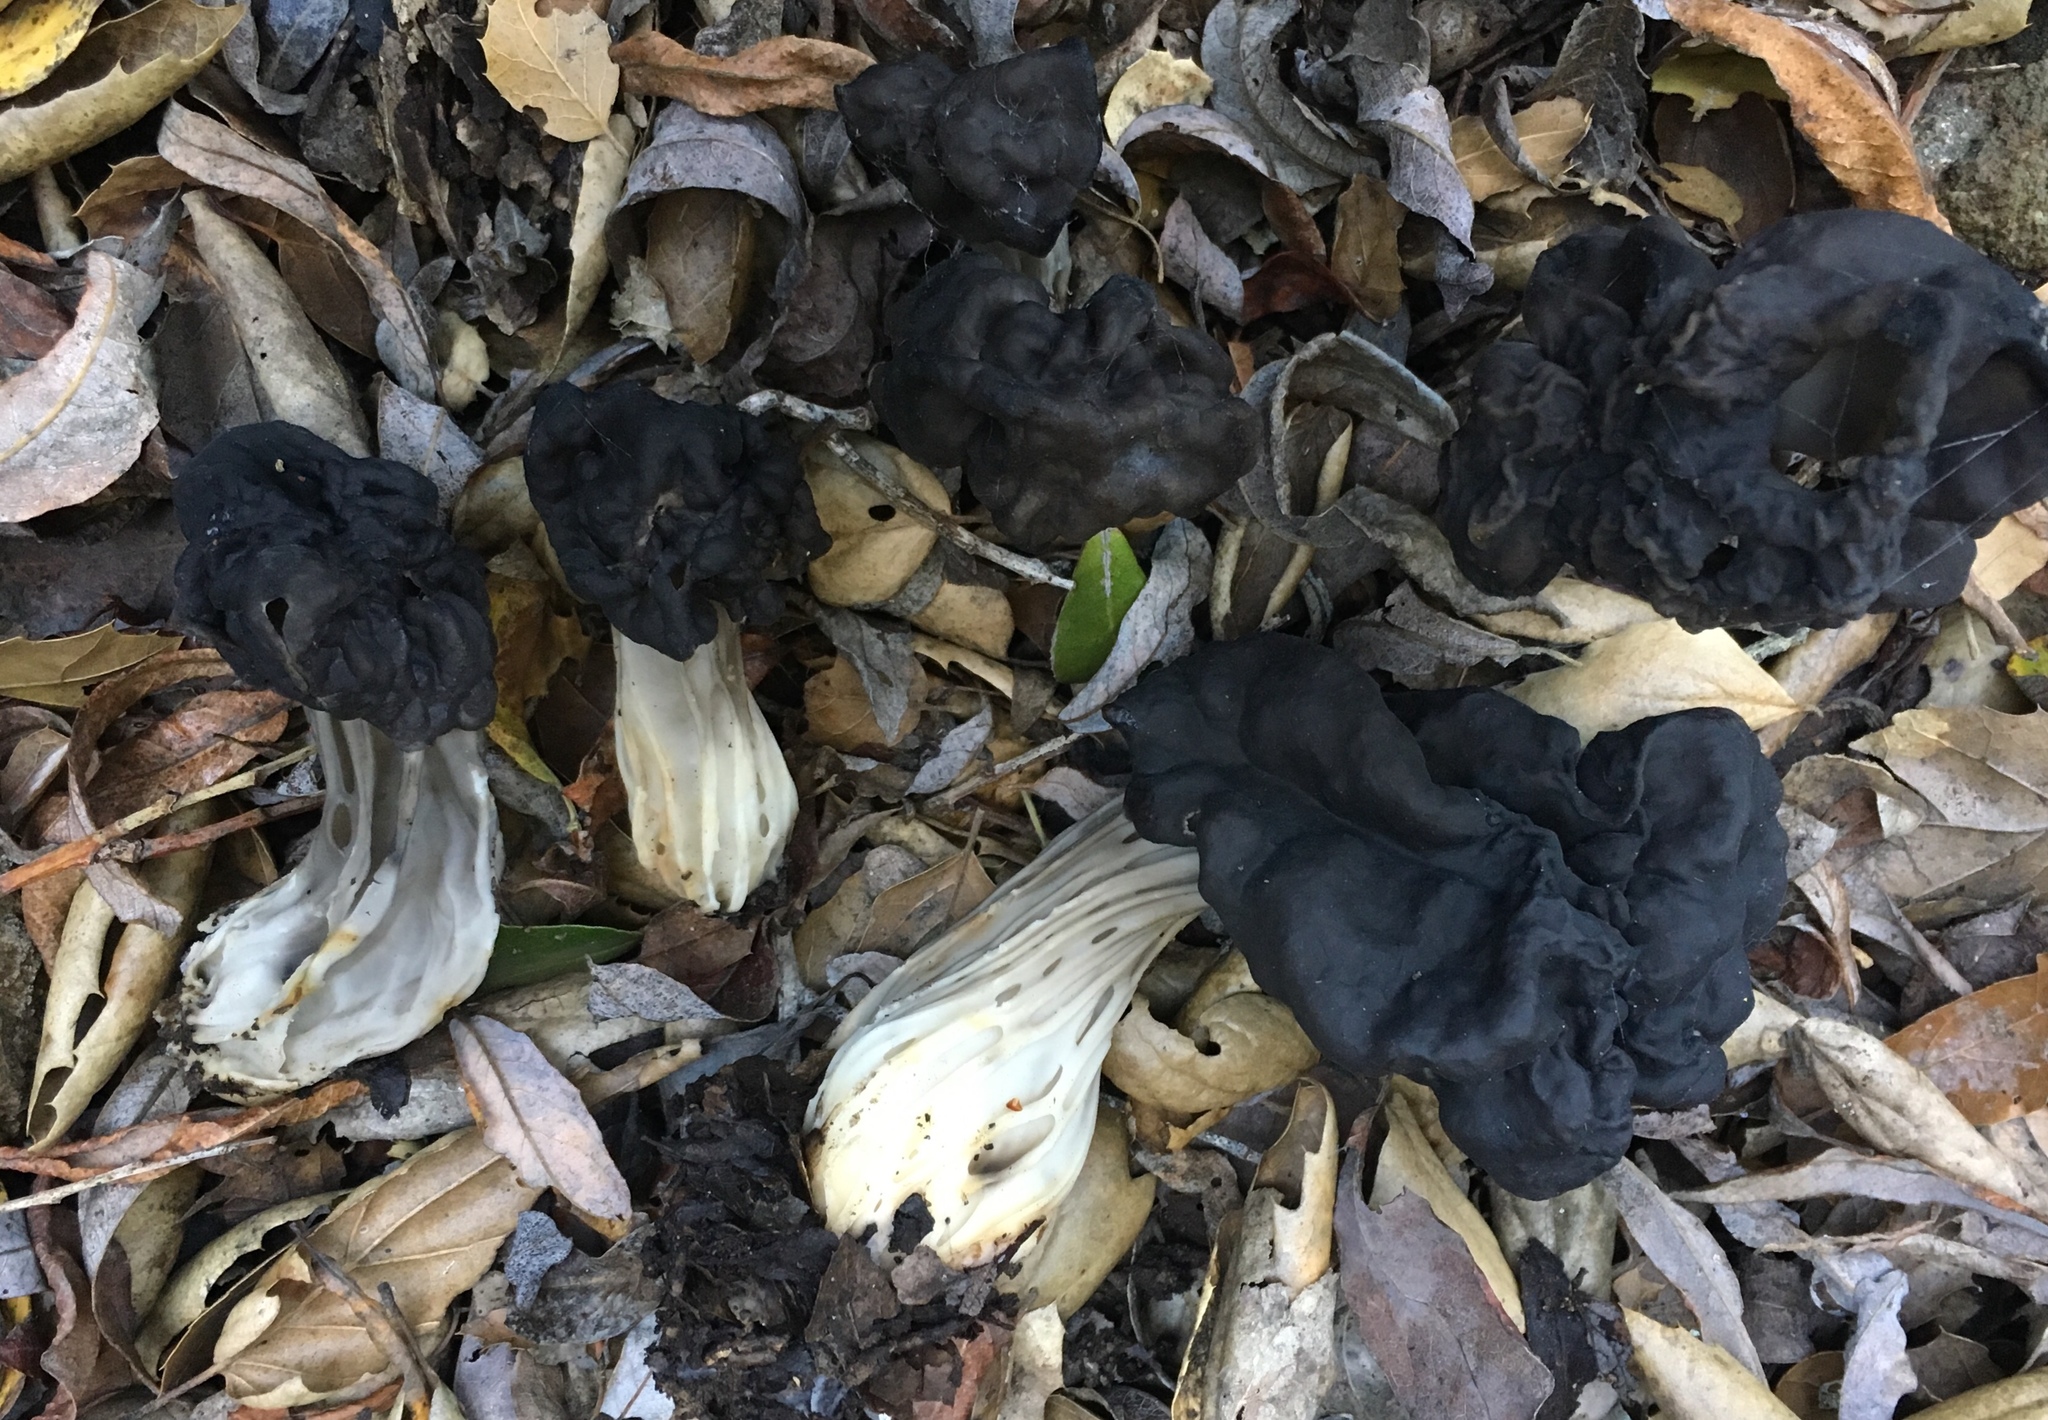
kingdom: Fungi
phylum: Ascomycota
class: Pezizomycetes
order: Pezizales
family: Helvellaceae
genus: Helvella
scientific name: Helvella dryophila
